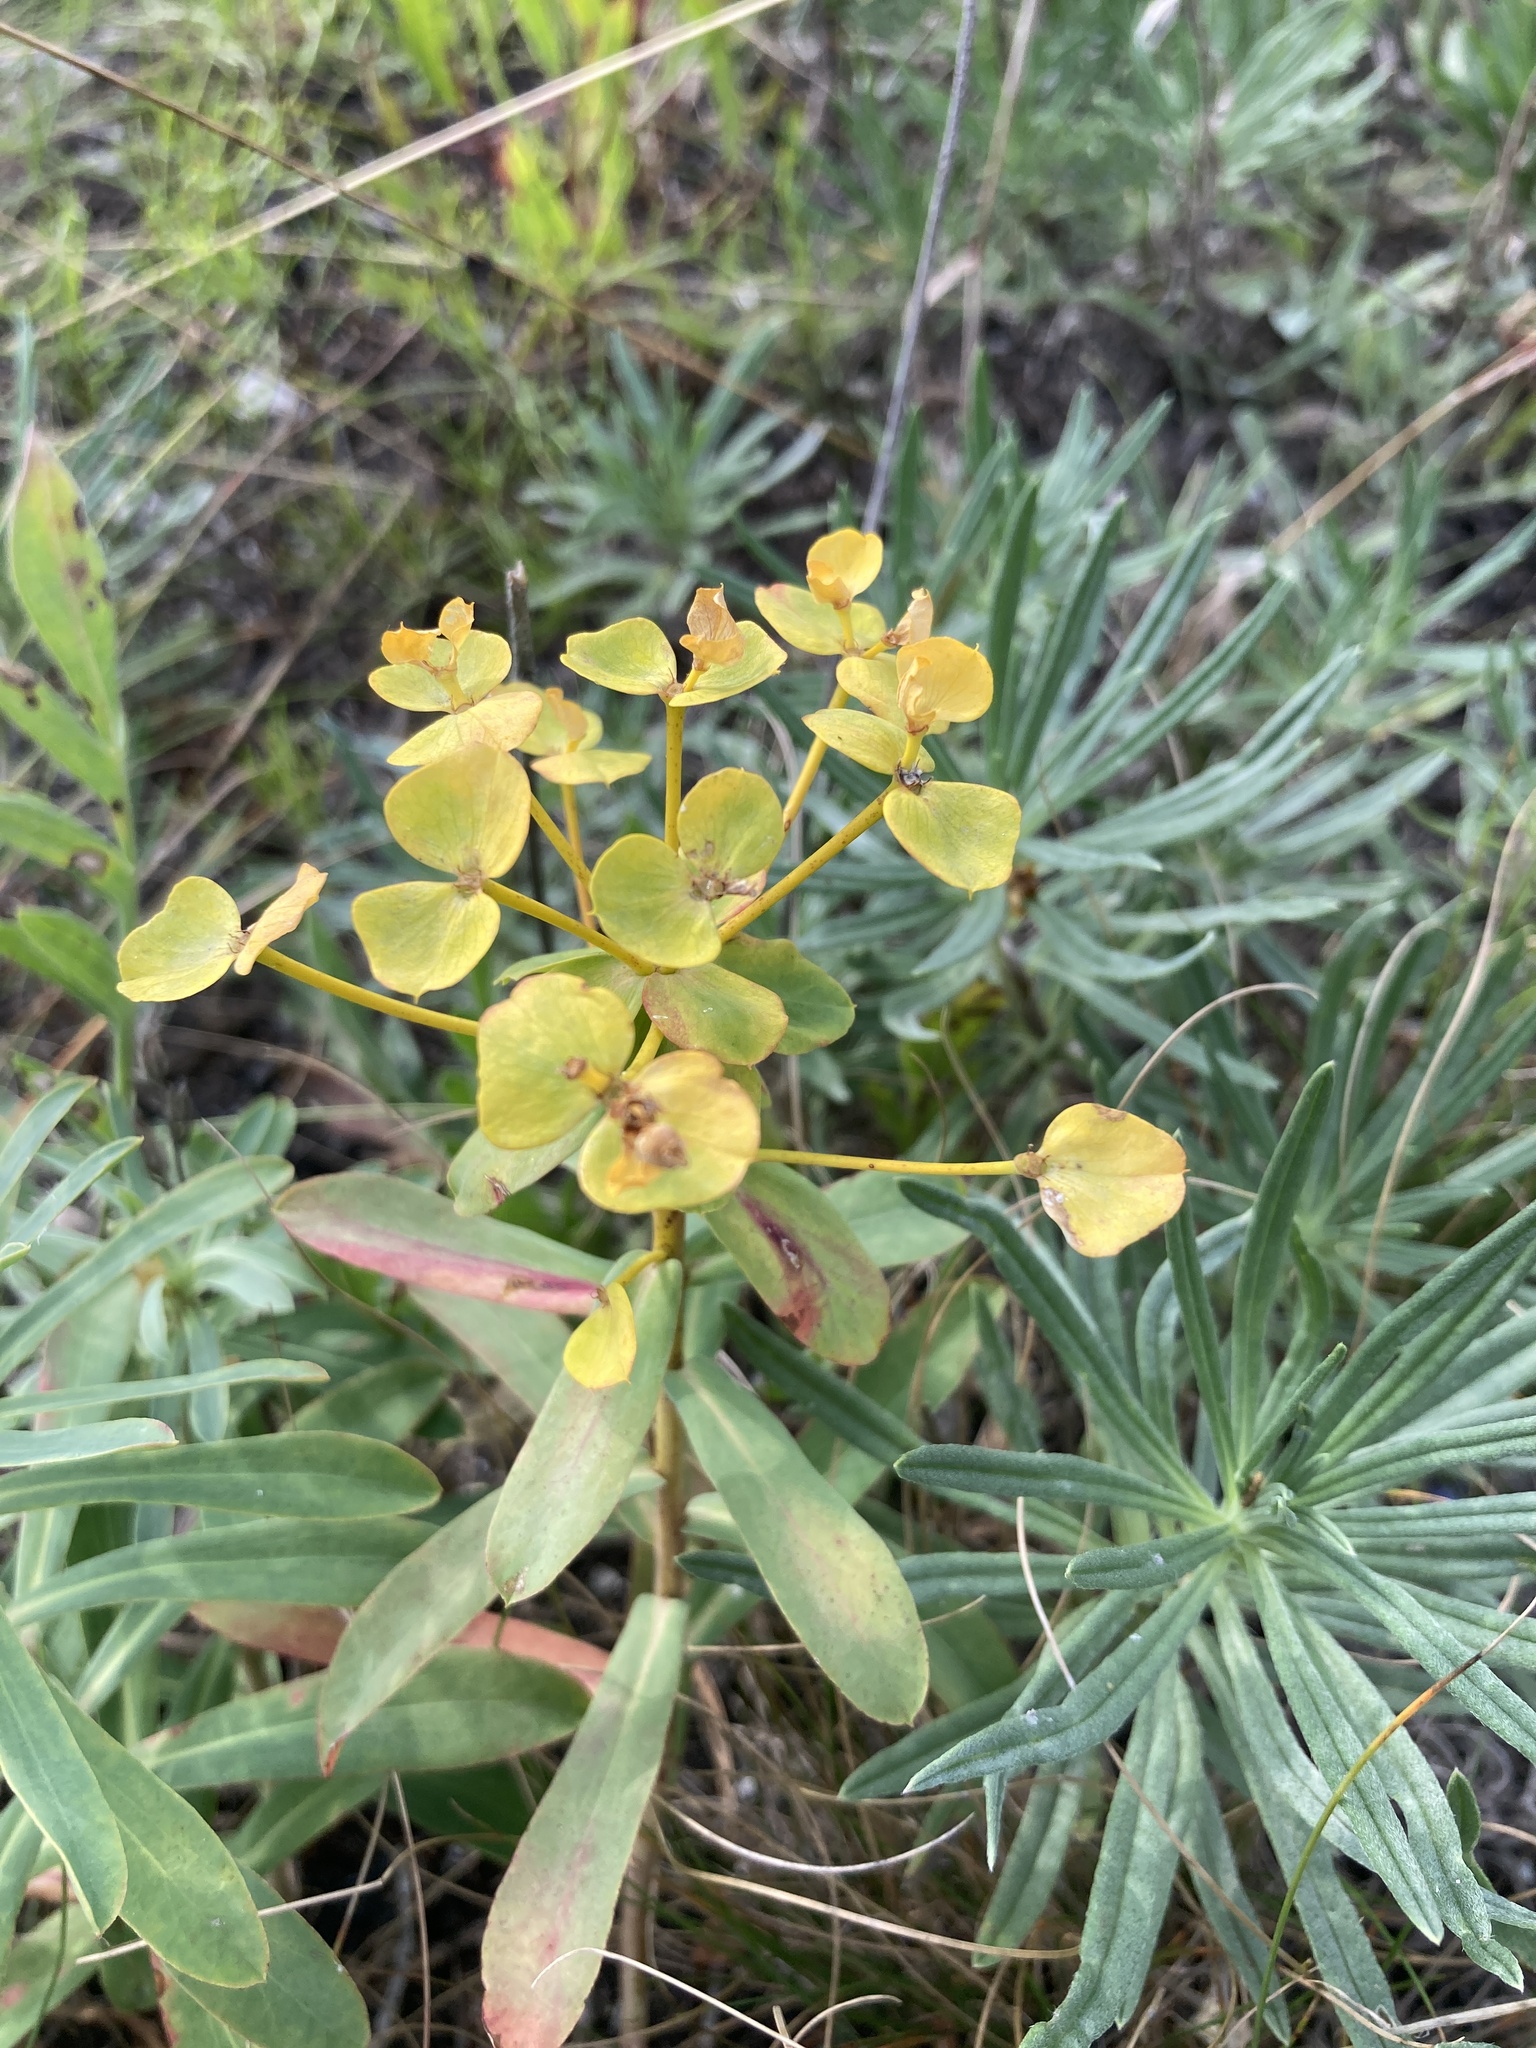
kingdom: Plantae
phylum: Tracheophyta
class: Magnoliopsida
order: Malpighiales
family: Euphorbiaceae
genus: Euphorbia
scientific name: Euphorbia stepposa
